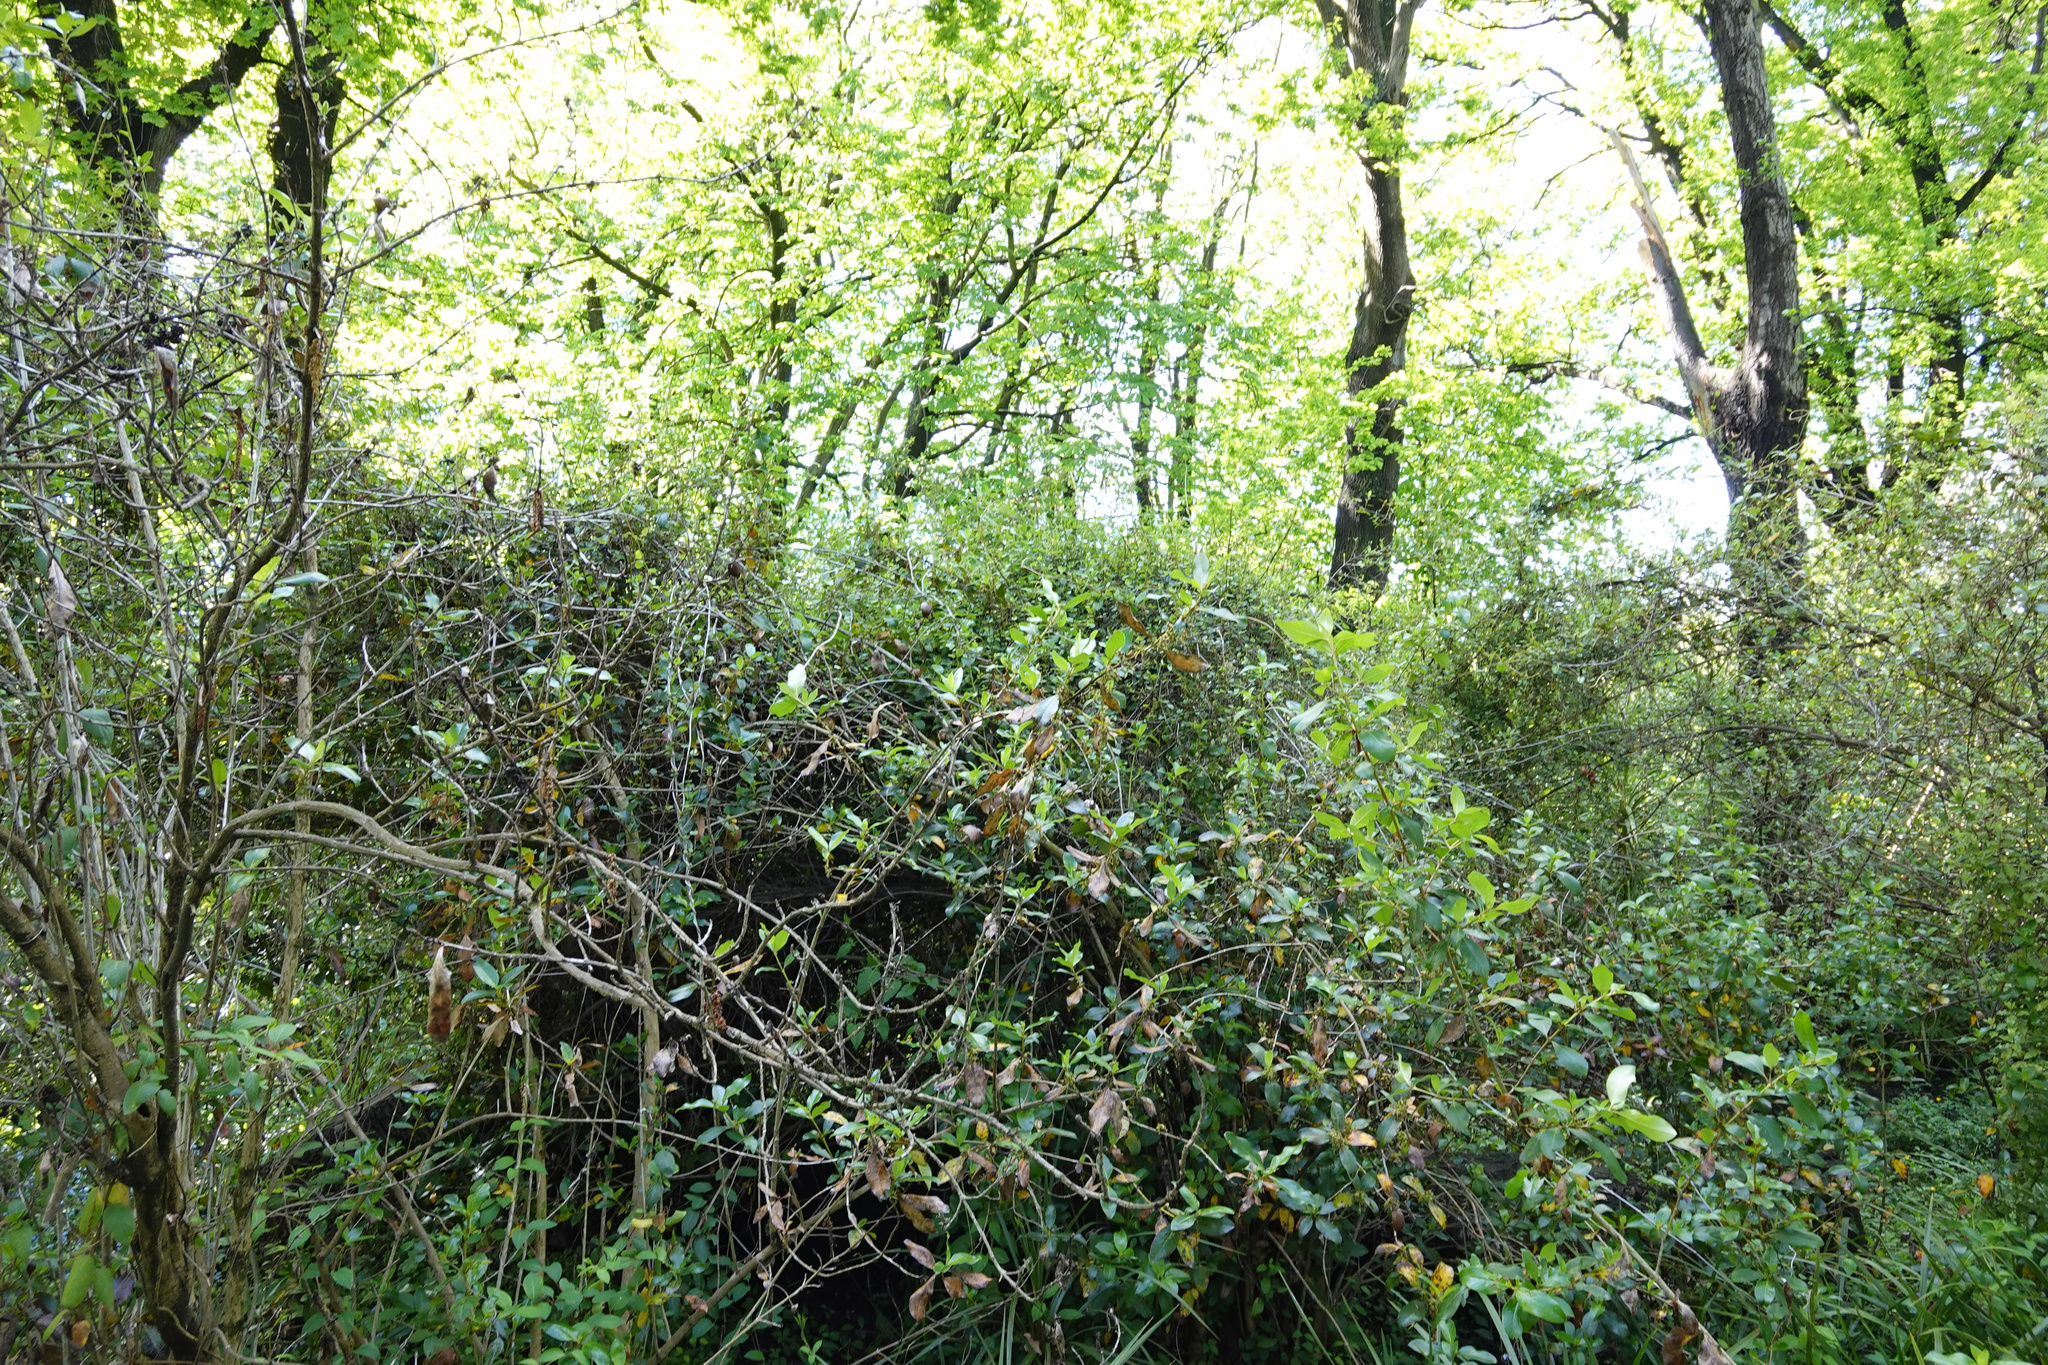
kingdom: Plantae
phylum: Tracheophyta
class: Magnoliopsida
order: Caryophyllales
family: Polygonaceae
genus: Muehlenbeckia
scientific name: Muehlenbeckia australis
